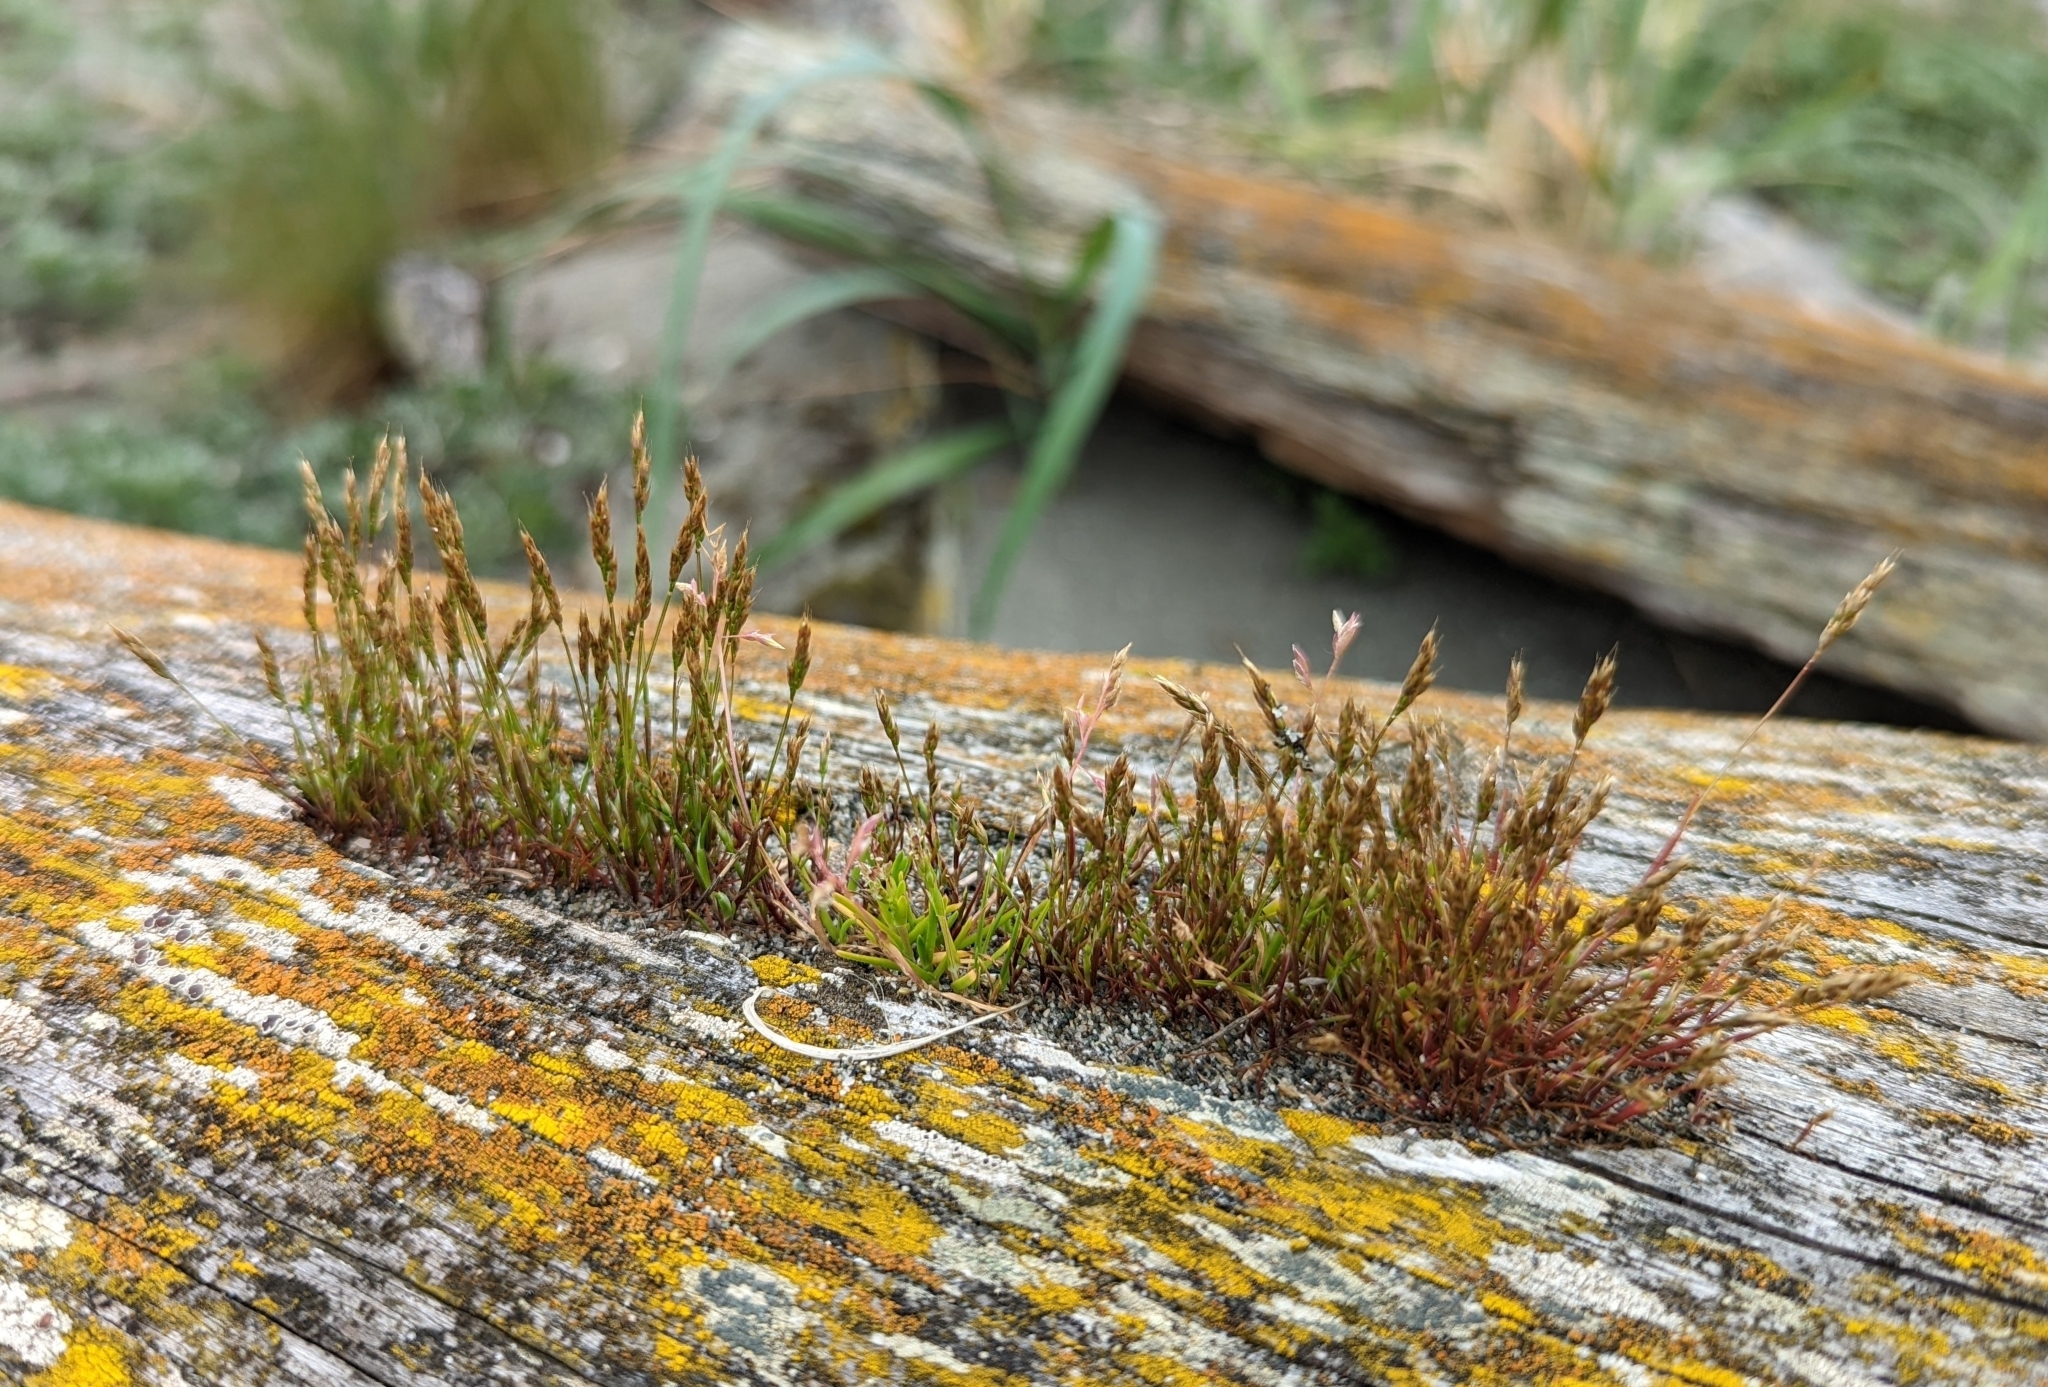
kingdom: Plantae
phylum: Tracheophyta
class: Liliopsida
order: Poales
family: Poaceae
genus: Aira
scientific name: Aira praecox
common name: Early hair-grass
